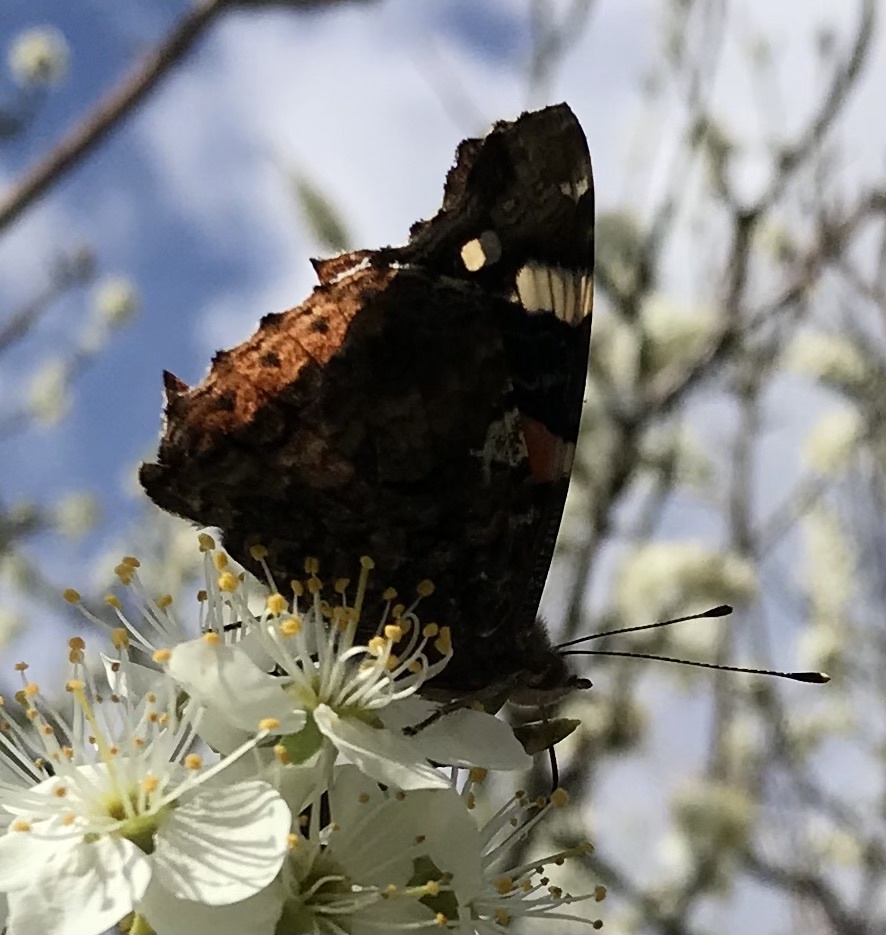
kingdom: Animalia
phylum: Arthropoda
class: Insecta
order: Lepidoptera
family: Nymphalidae
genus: Vanessa
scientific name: Vanessa atalanta
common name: Red admiral
